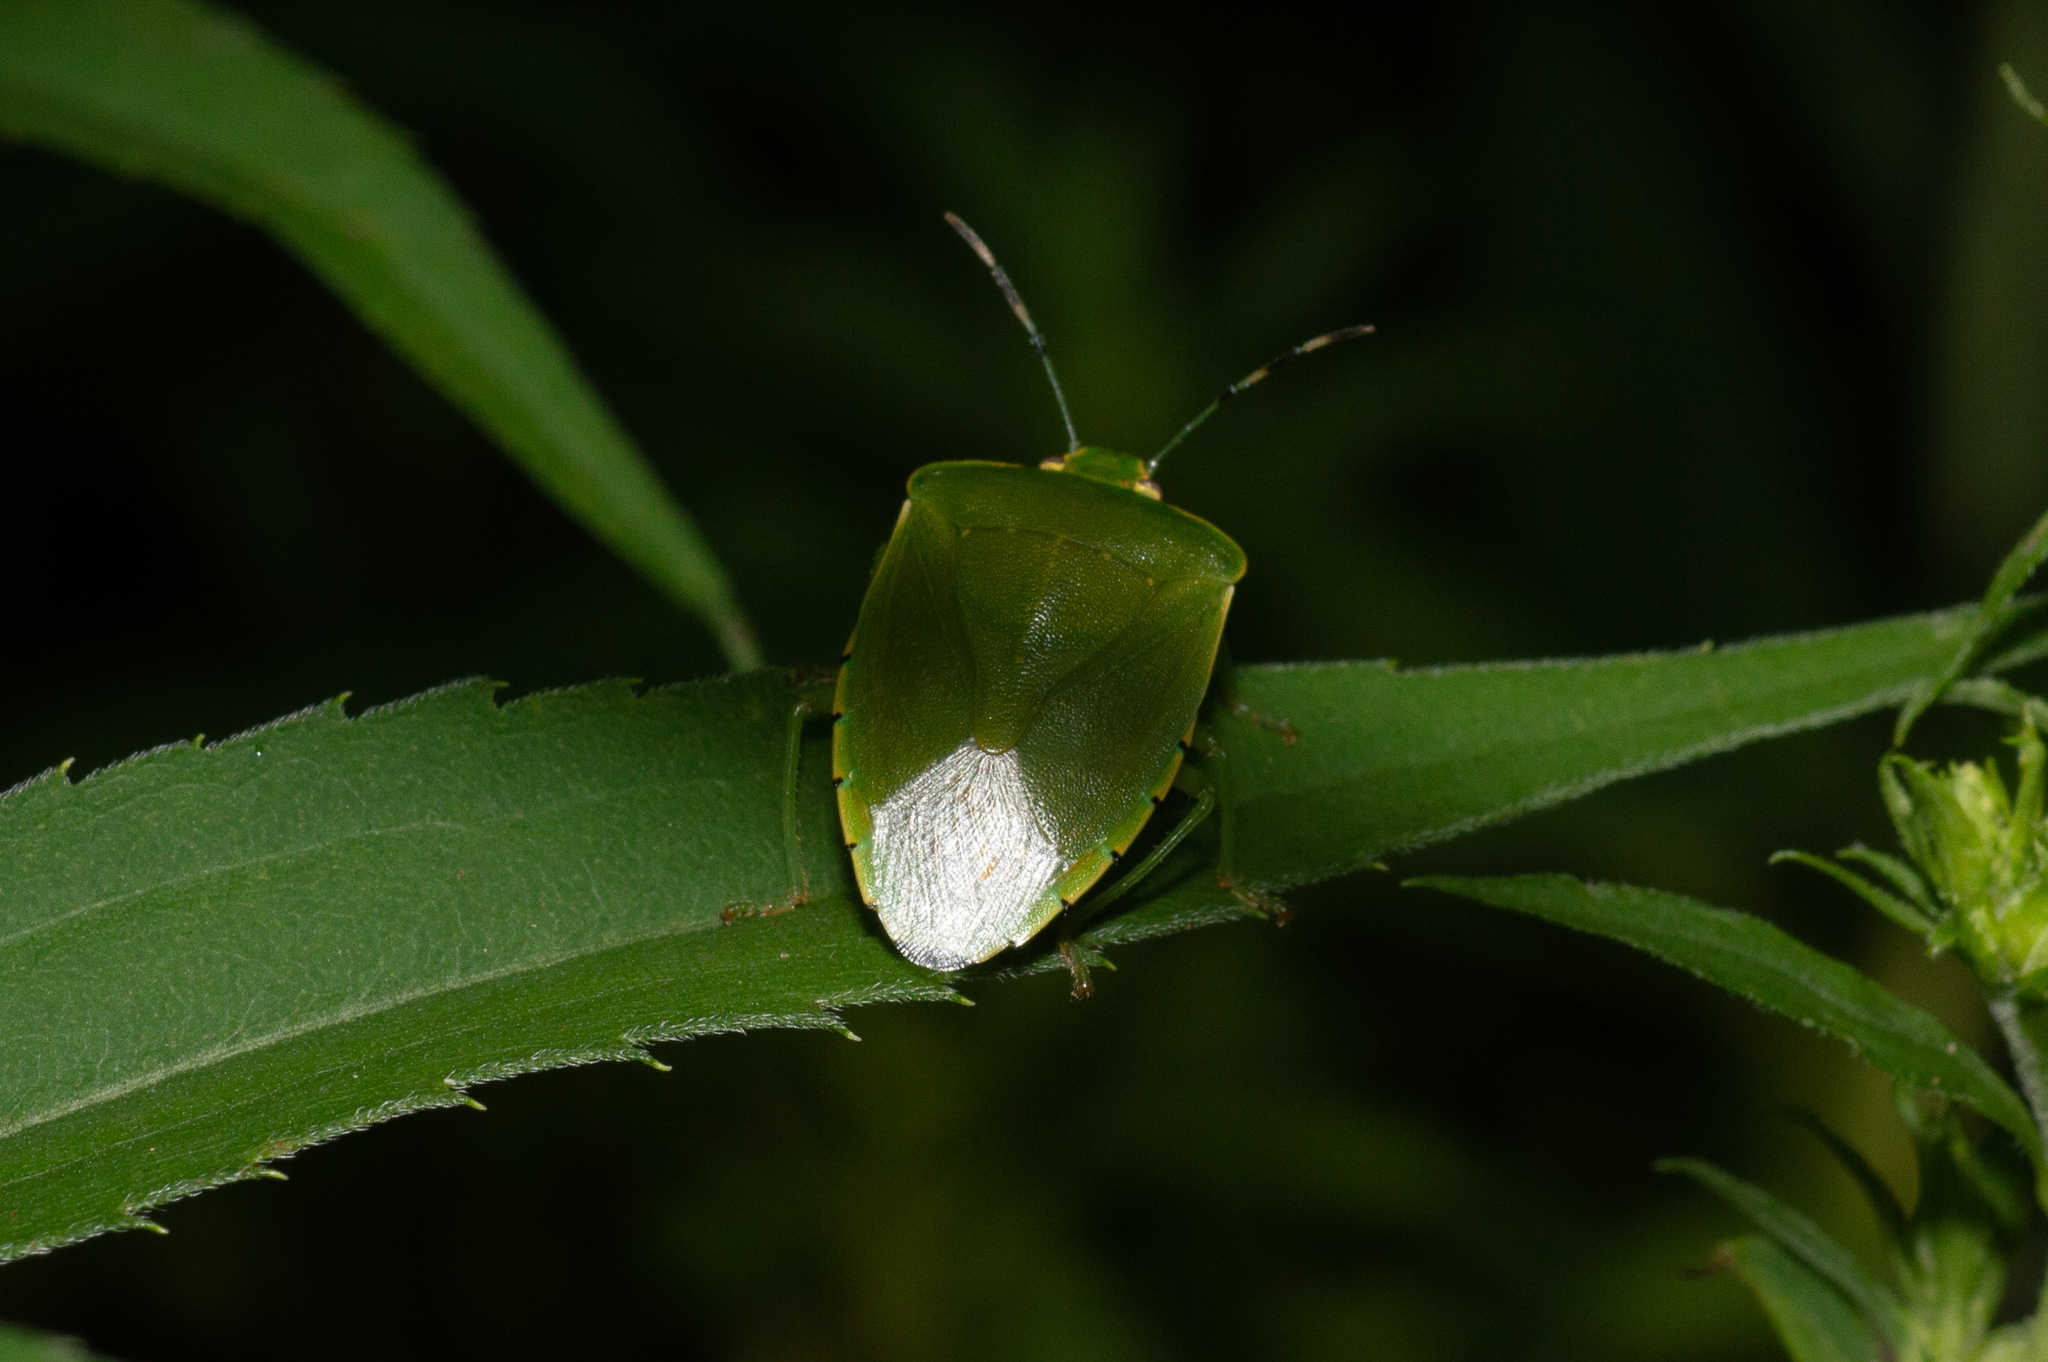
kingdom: Animalia
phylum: Arthropoda
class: Insecta
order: Hemiptera
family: Pentatomidae
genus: Chinavia
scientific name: Chinavia hilaris
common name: Green stink bug
